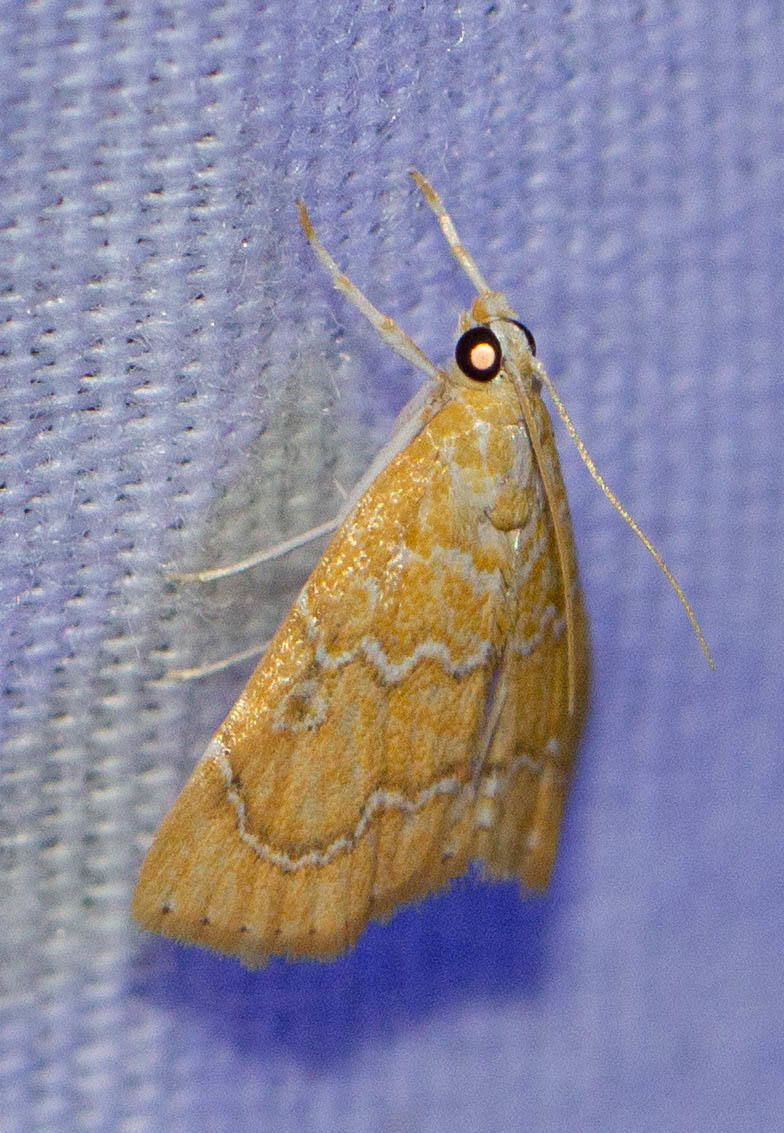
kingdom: Animalia
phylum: Arthropoda
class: Insecta
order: Lepidoptera
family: Crambidae
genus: Glaphyria
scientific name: Glaphyria sesquistrialis
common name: White-roped glaphyria
